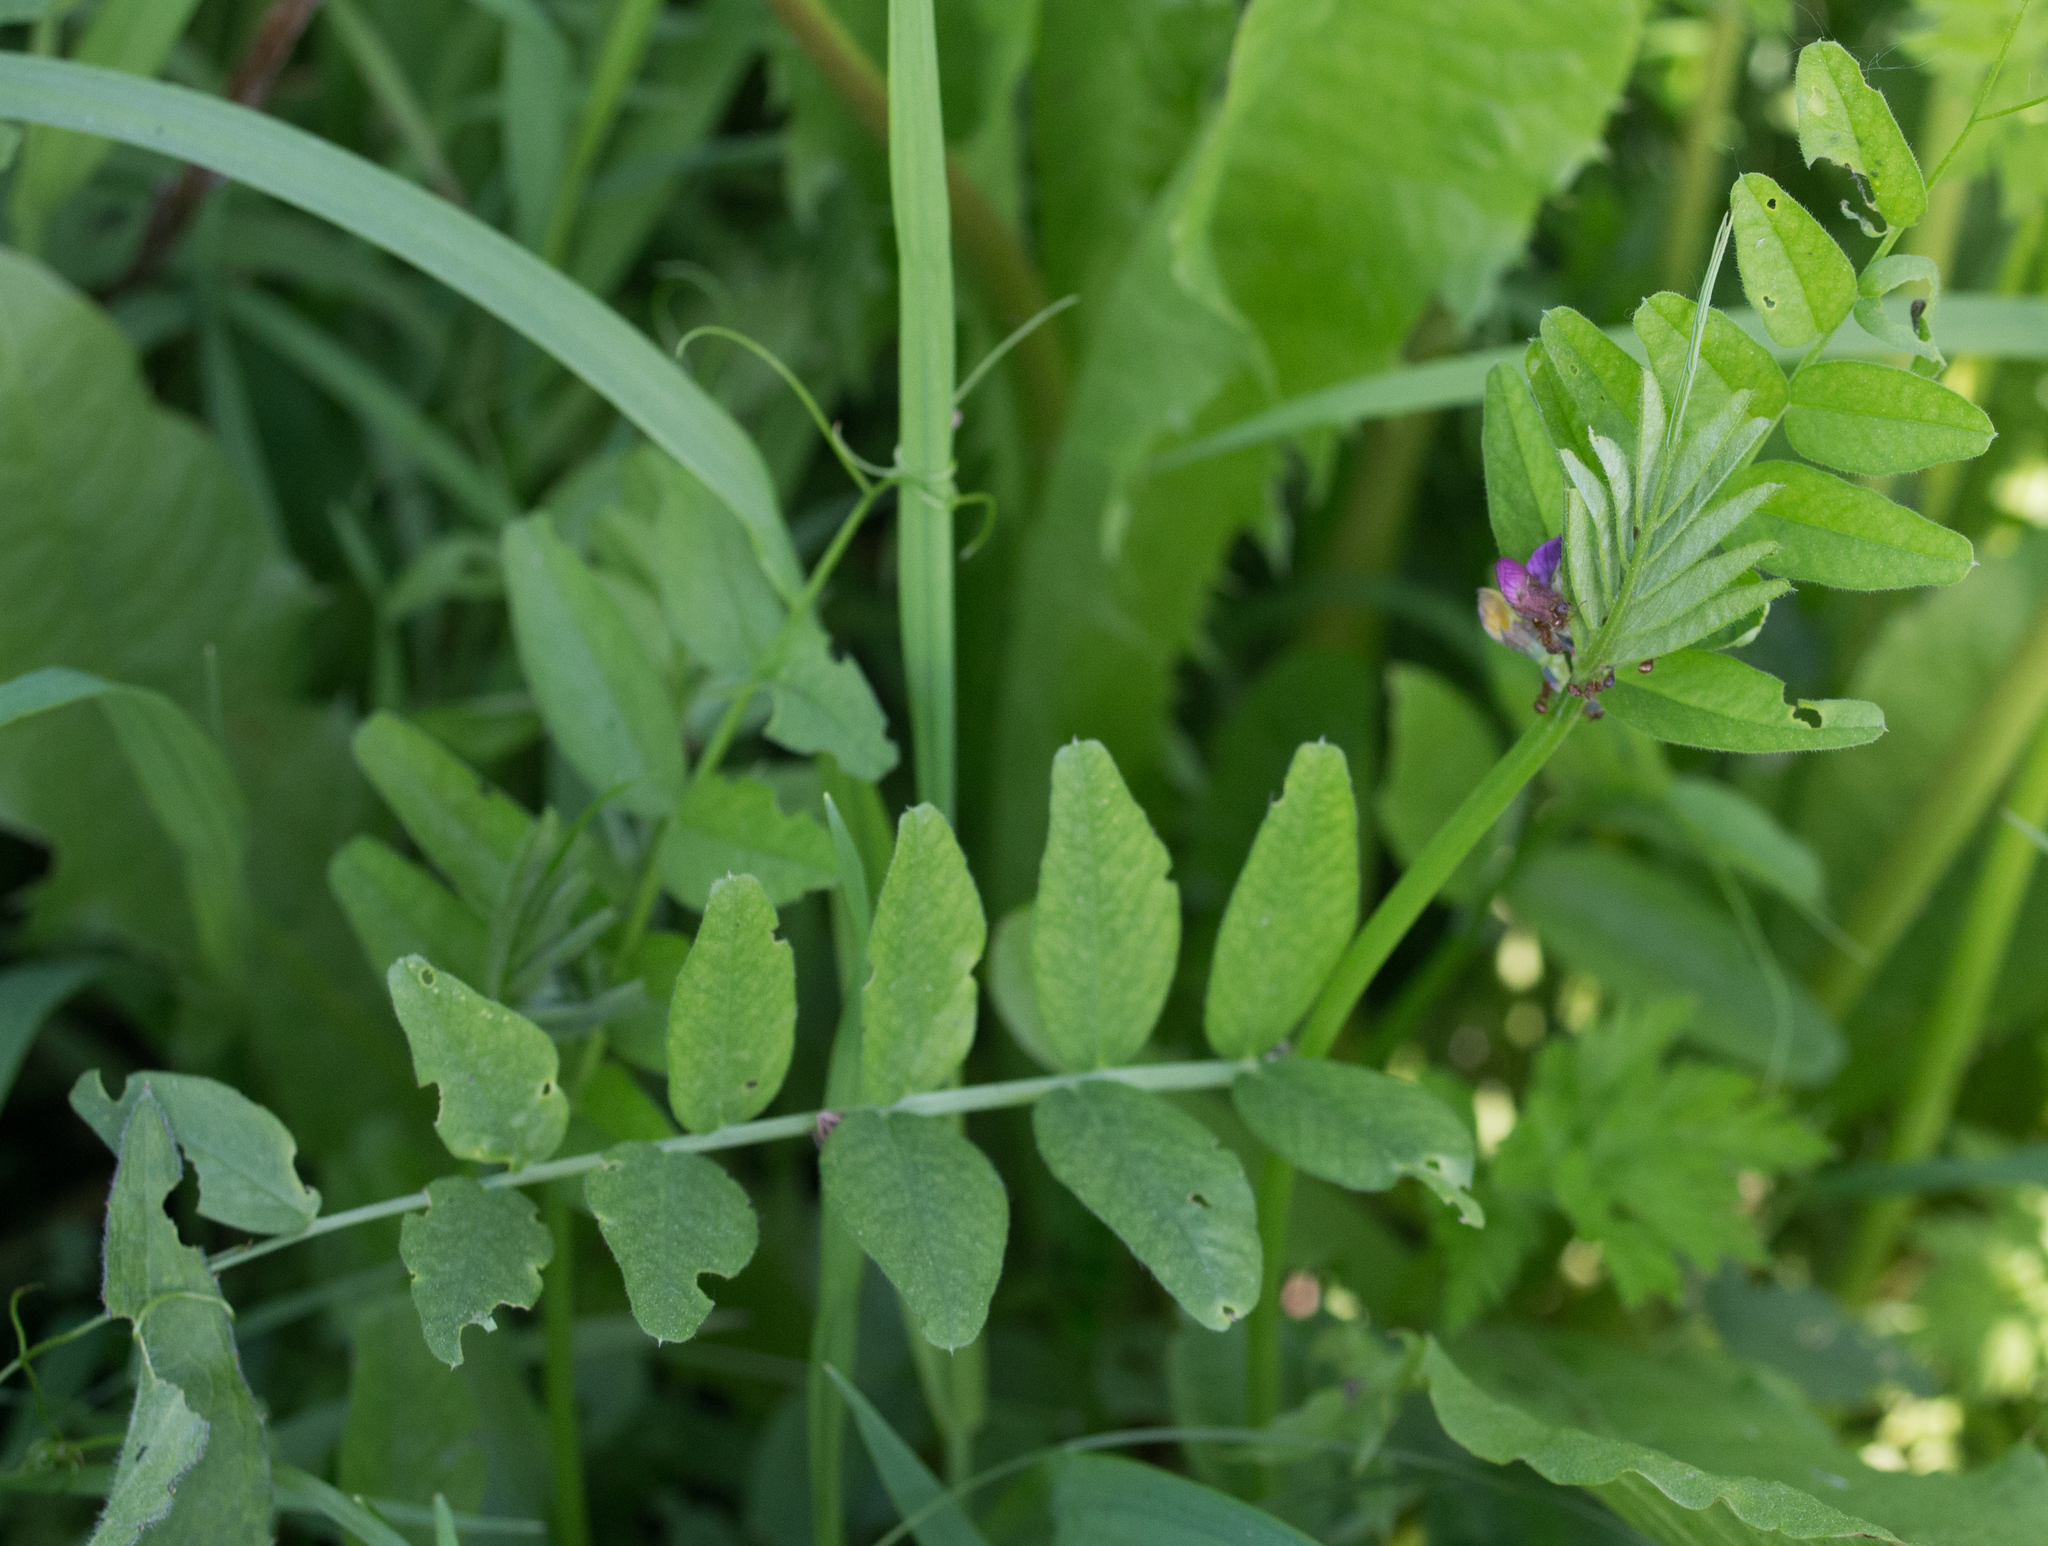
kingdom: Plantae
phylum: Tracheophyta
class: Magnoliopsida
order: Fabales
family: Fabaceae
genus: Vicia
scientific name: Vicia sepium
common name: Bush vetch
